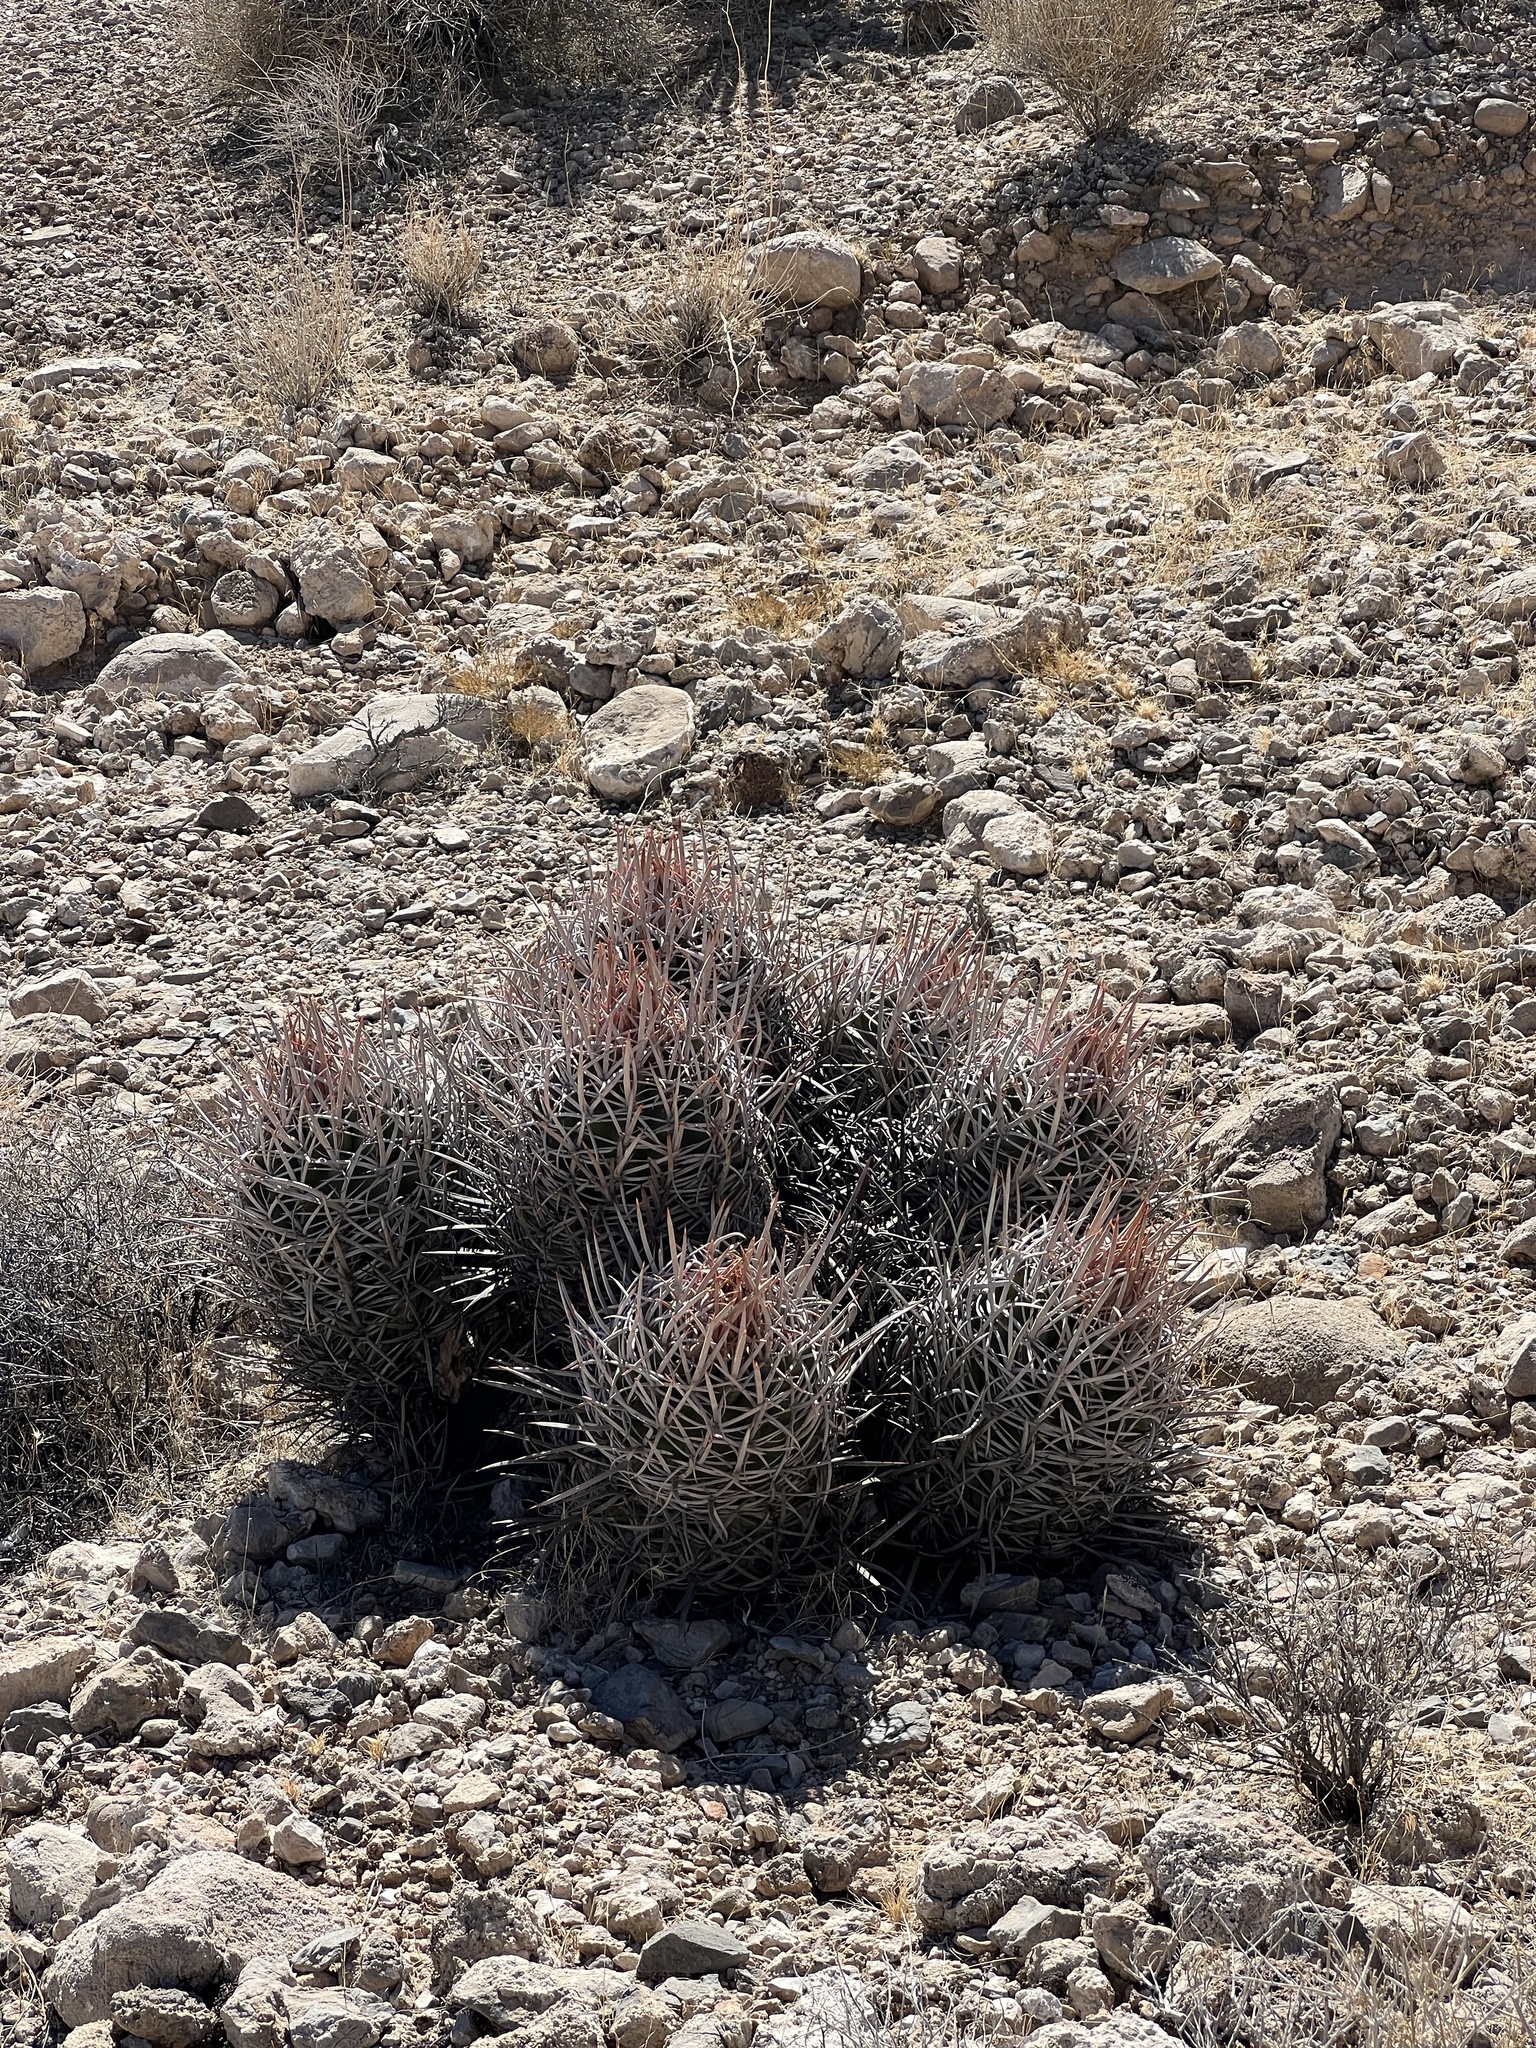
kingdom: Plantae
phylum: Tracheophyta
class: Magnoliopsida
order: Caryophyllales
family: Cactaceae
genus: Echinocactus
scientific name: Echinocactus polycephalus
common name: Cottontop cactus
